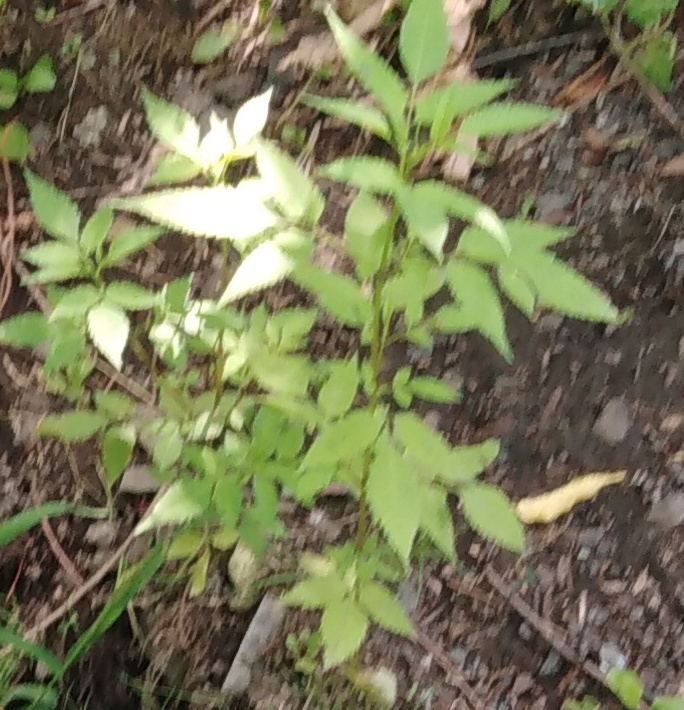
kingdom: Plantae
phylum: Tracheophyta
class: Magnoliopsida
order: Asterales
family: Asteraceae
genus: Bidens
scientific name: Bidens frondosa
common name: Beggarticks
